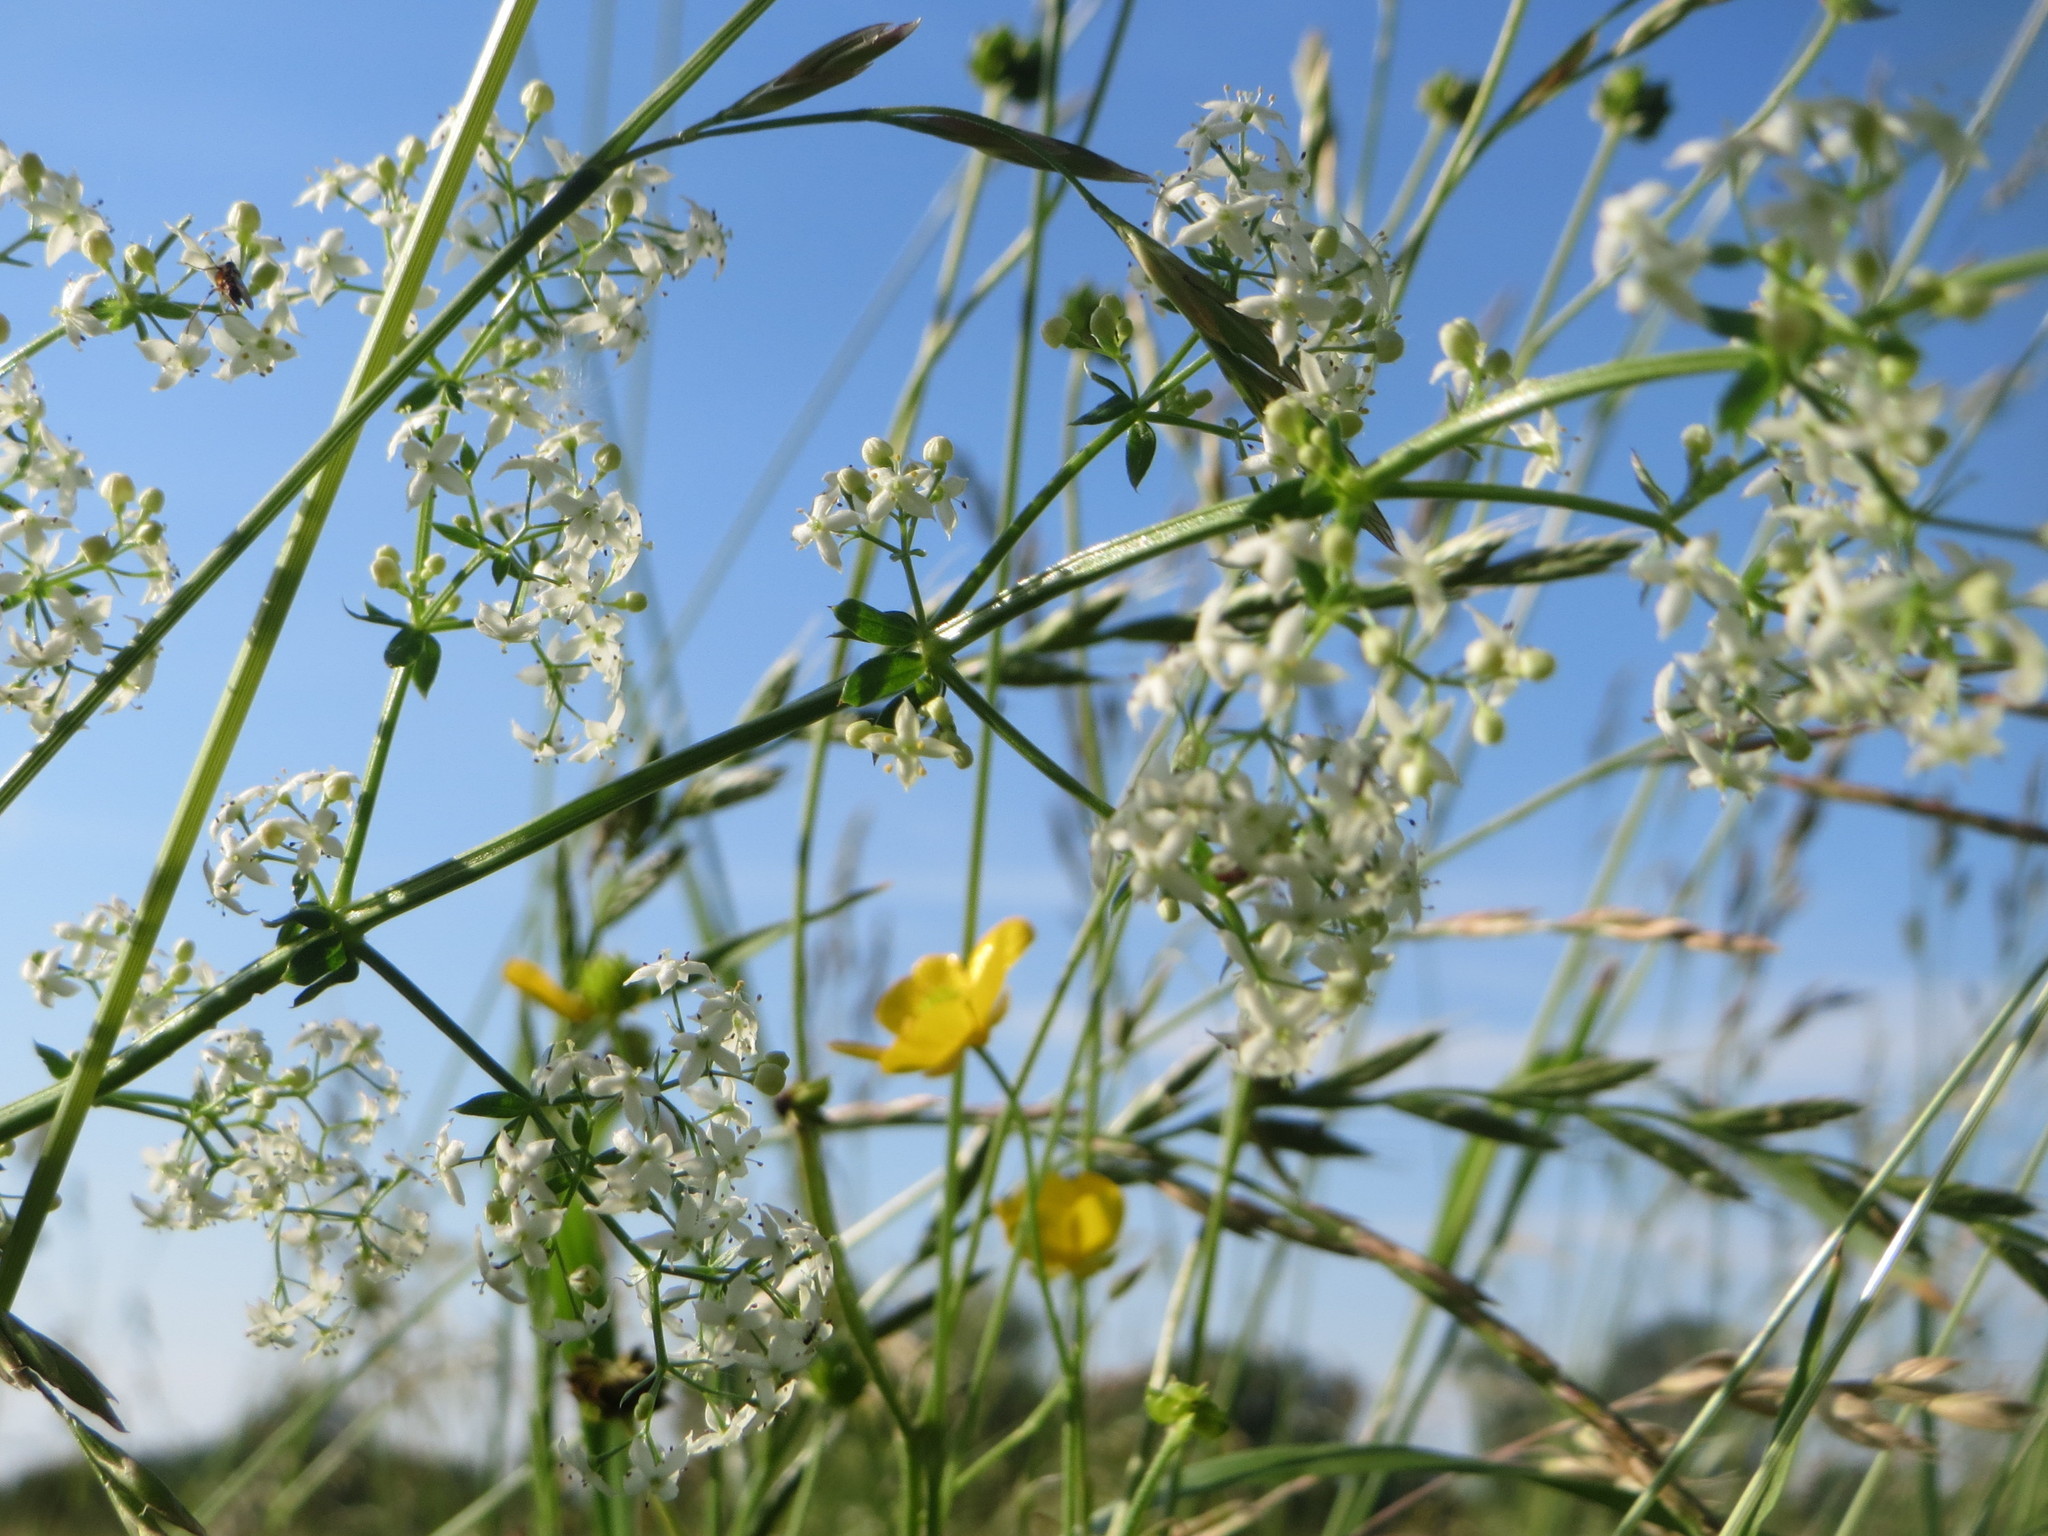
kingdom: Plantae
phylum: Tracheophyta
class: Magnoliopsida
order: Gentianales
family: Rubiaceae
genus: Galium
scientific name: Galium mollugo
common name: Hedge bedstraw
